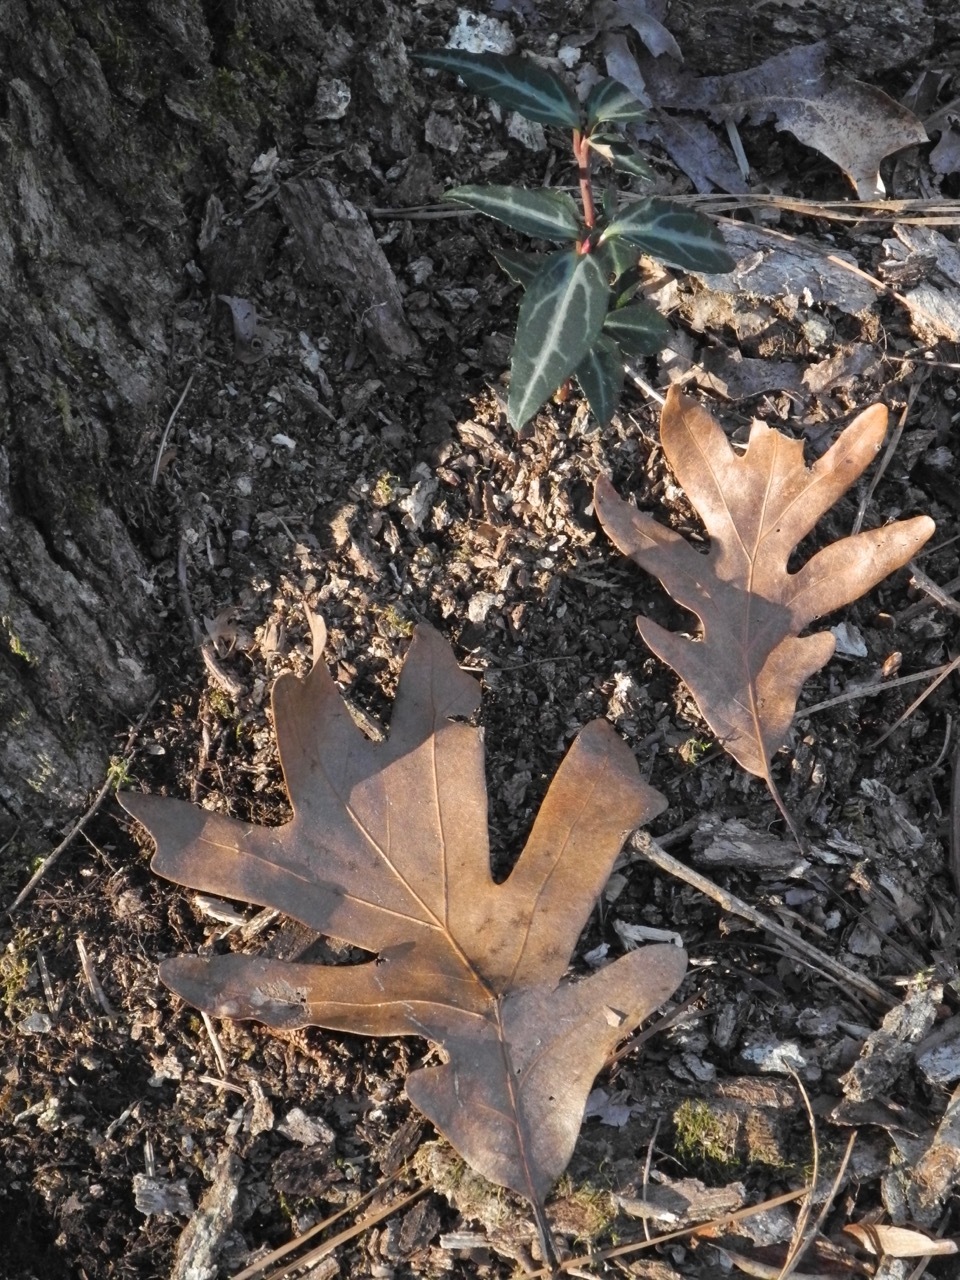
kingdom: Plantae
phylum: Tracheophyta
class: Magnoliopsida
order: Fagales
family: Fagaceae
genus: Quercus
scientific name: Quercus alba
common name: White oak
